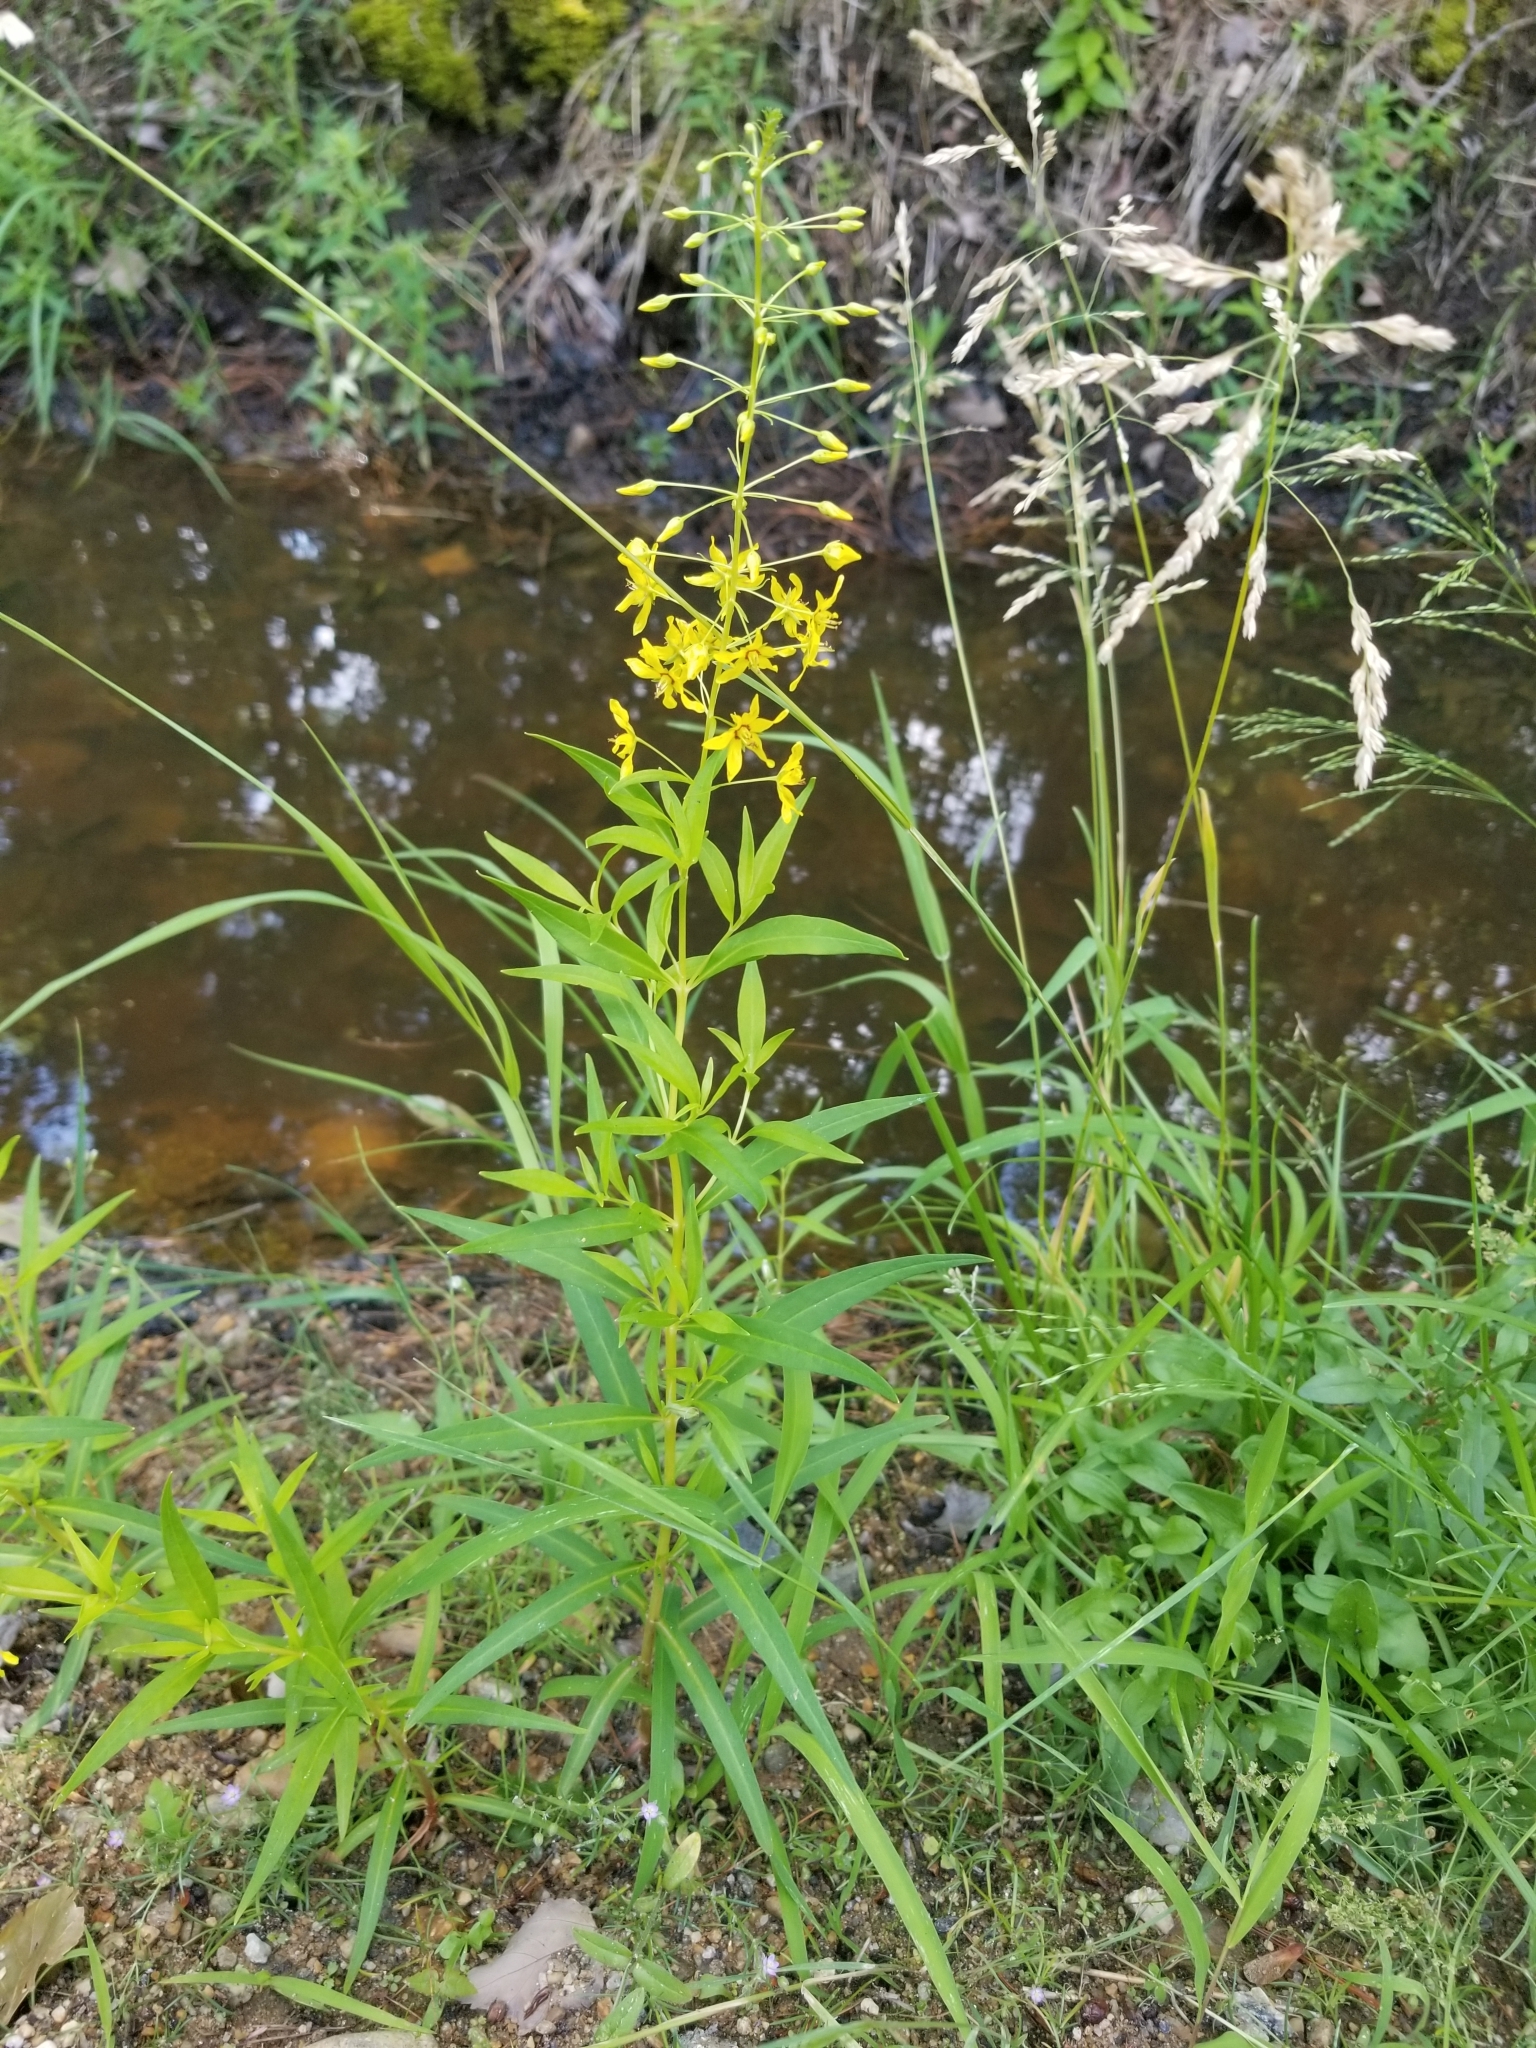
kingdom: Plantae
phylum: Tracheophyta
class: Magnoliopsida
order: Ericales
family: Primulaceae
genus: Lysimachia
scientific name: Lysimachia terrestris
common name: Lake loosestrife
